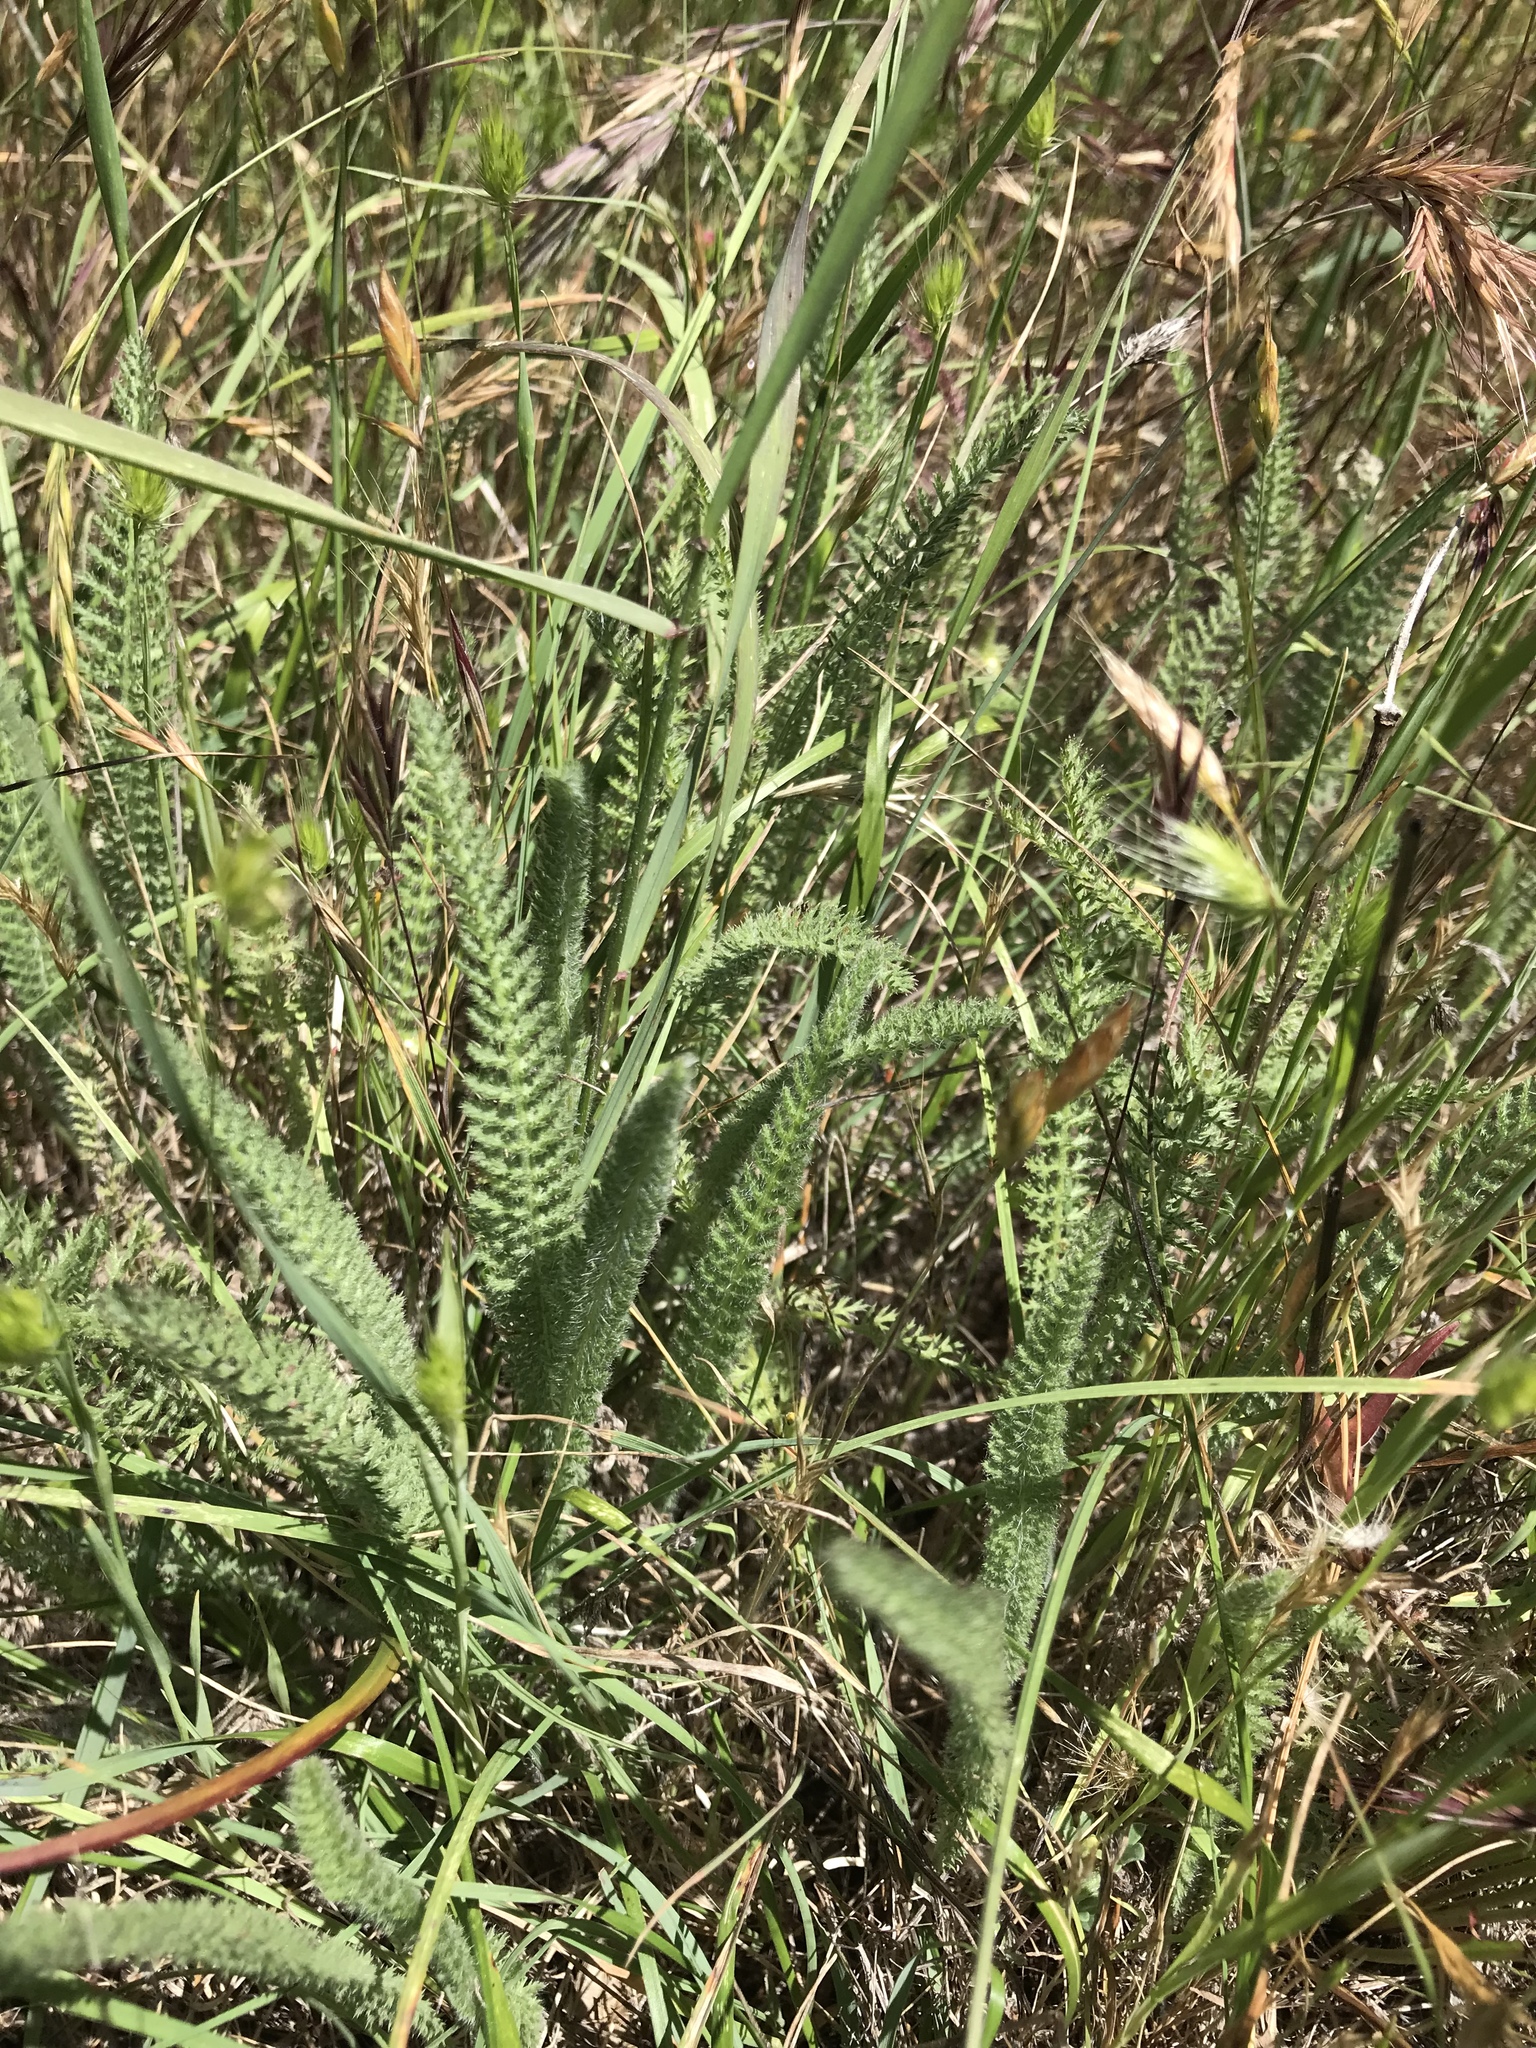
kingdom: Plantae
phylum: Tracheophyta
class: Magnoliopsida
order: Asterales
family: Asteraceae
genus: Achillea
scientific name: Achillea millefolium
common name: Yarrow
